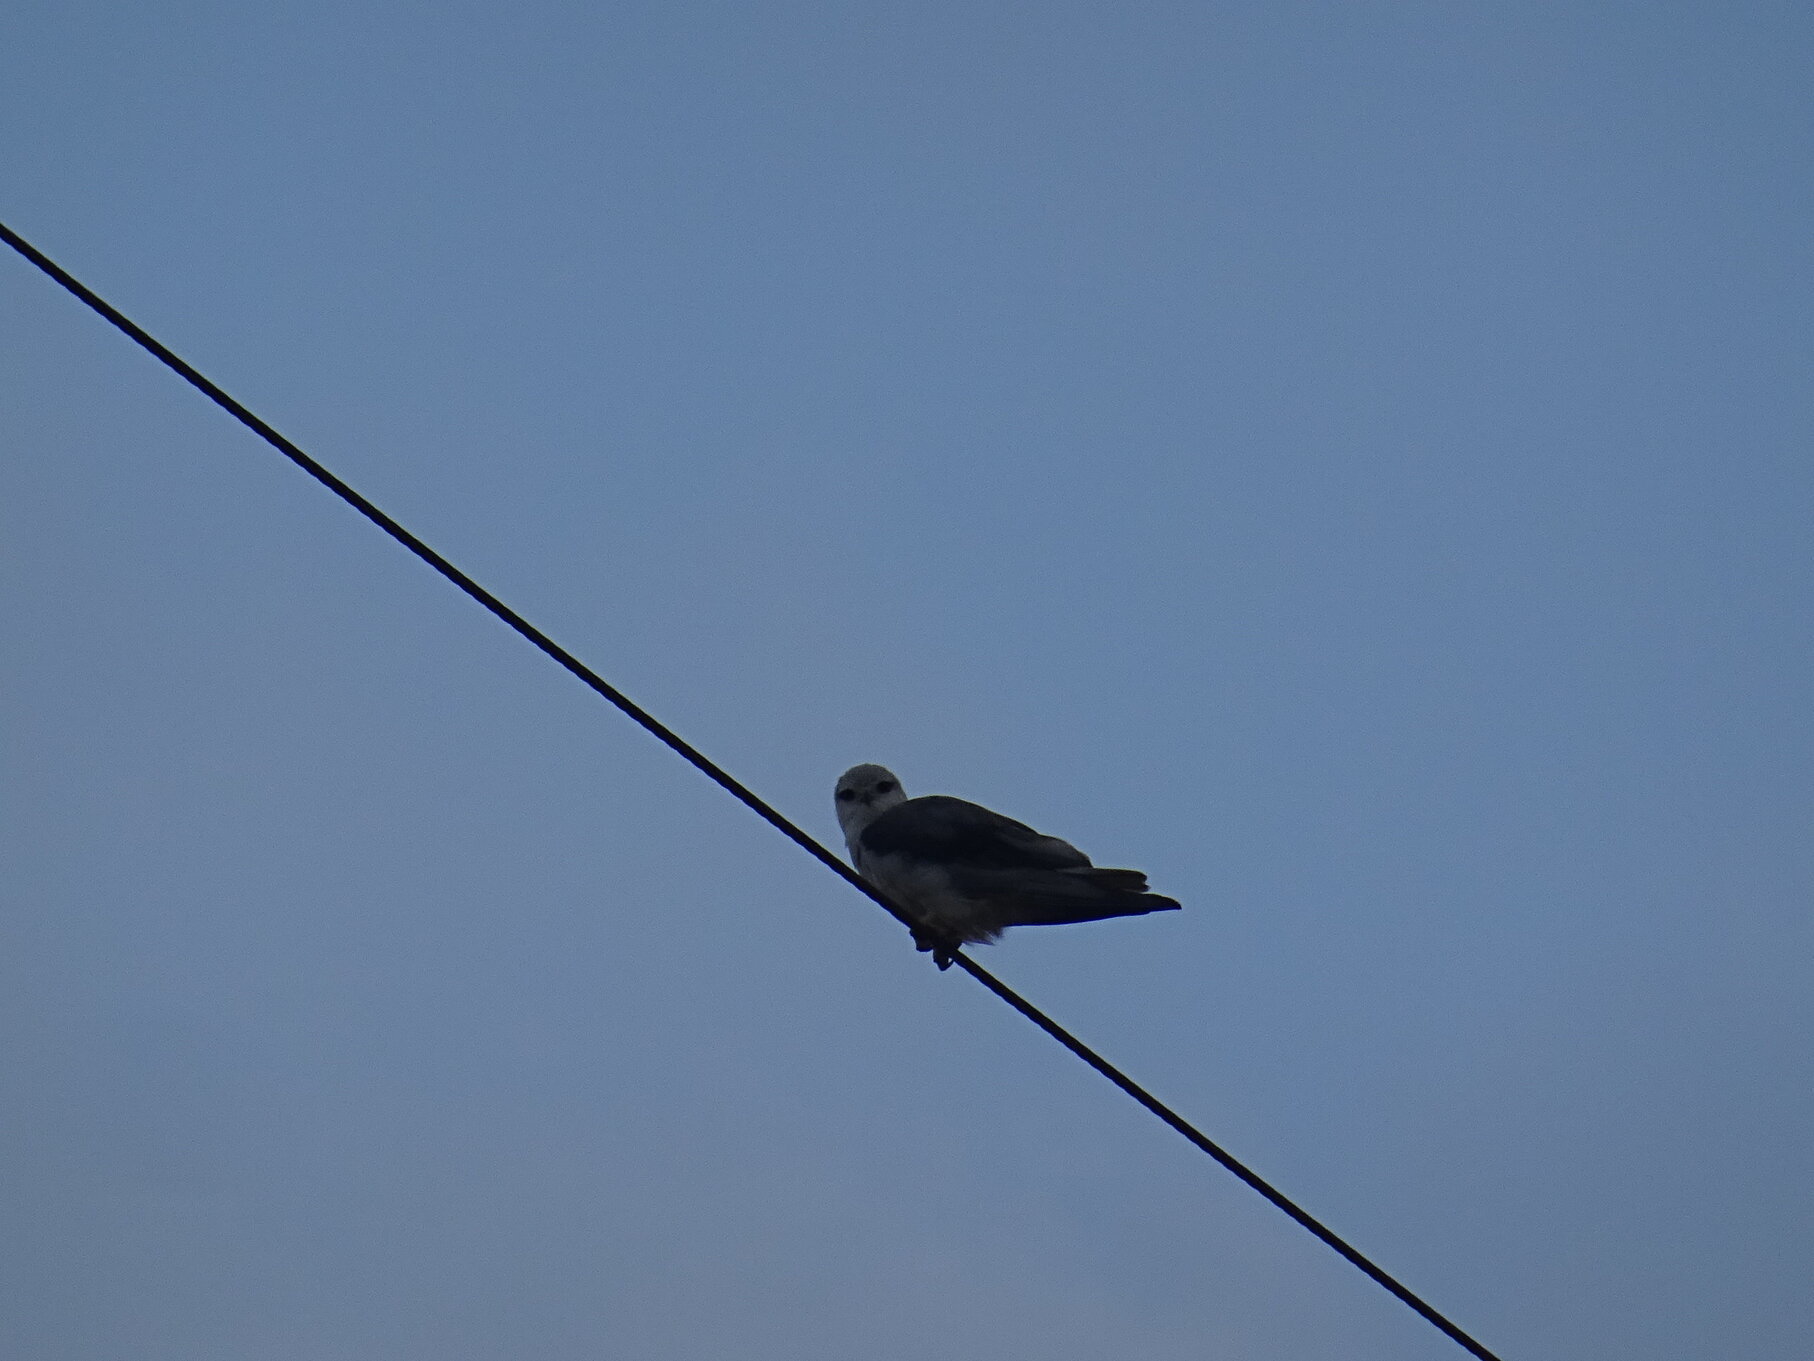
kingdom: Animalia
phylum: Chordata
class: Aves
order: Accipitriformes
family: Accipitridae
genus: Elanus
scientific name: Elanus caeruleus
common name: Black-winged kite
